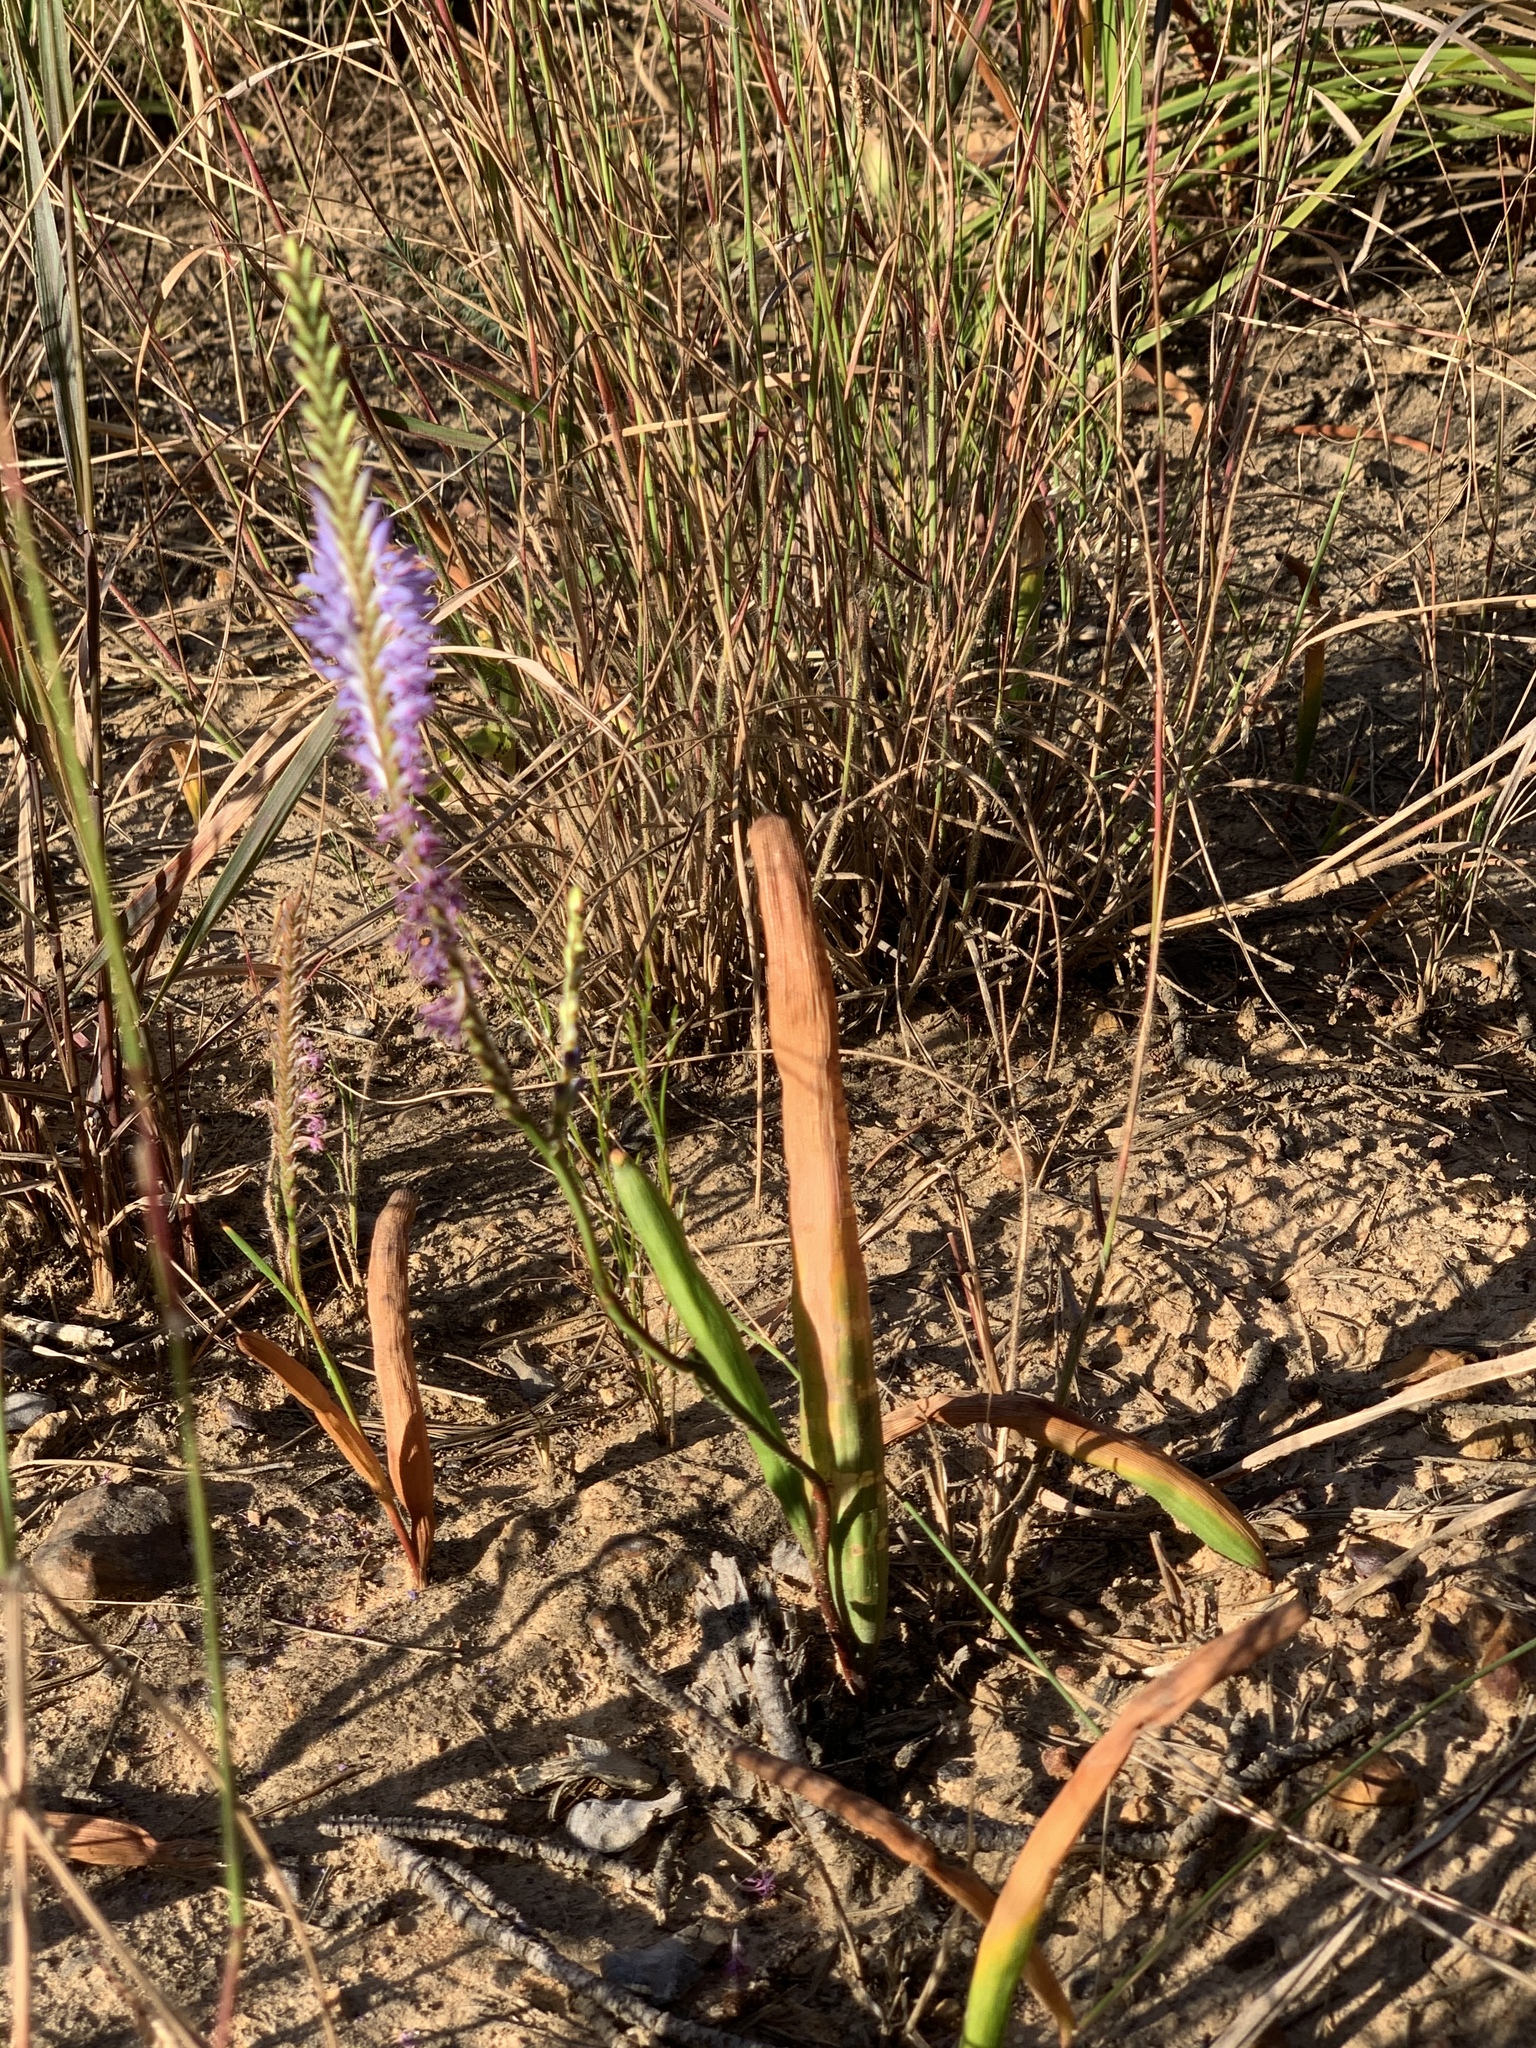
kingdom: Plantae
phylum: Tracheophyta
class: Liliopsida
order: Asparagales
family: Iridaceae
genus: Micranthus
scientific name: Micranthus tubulosus
